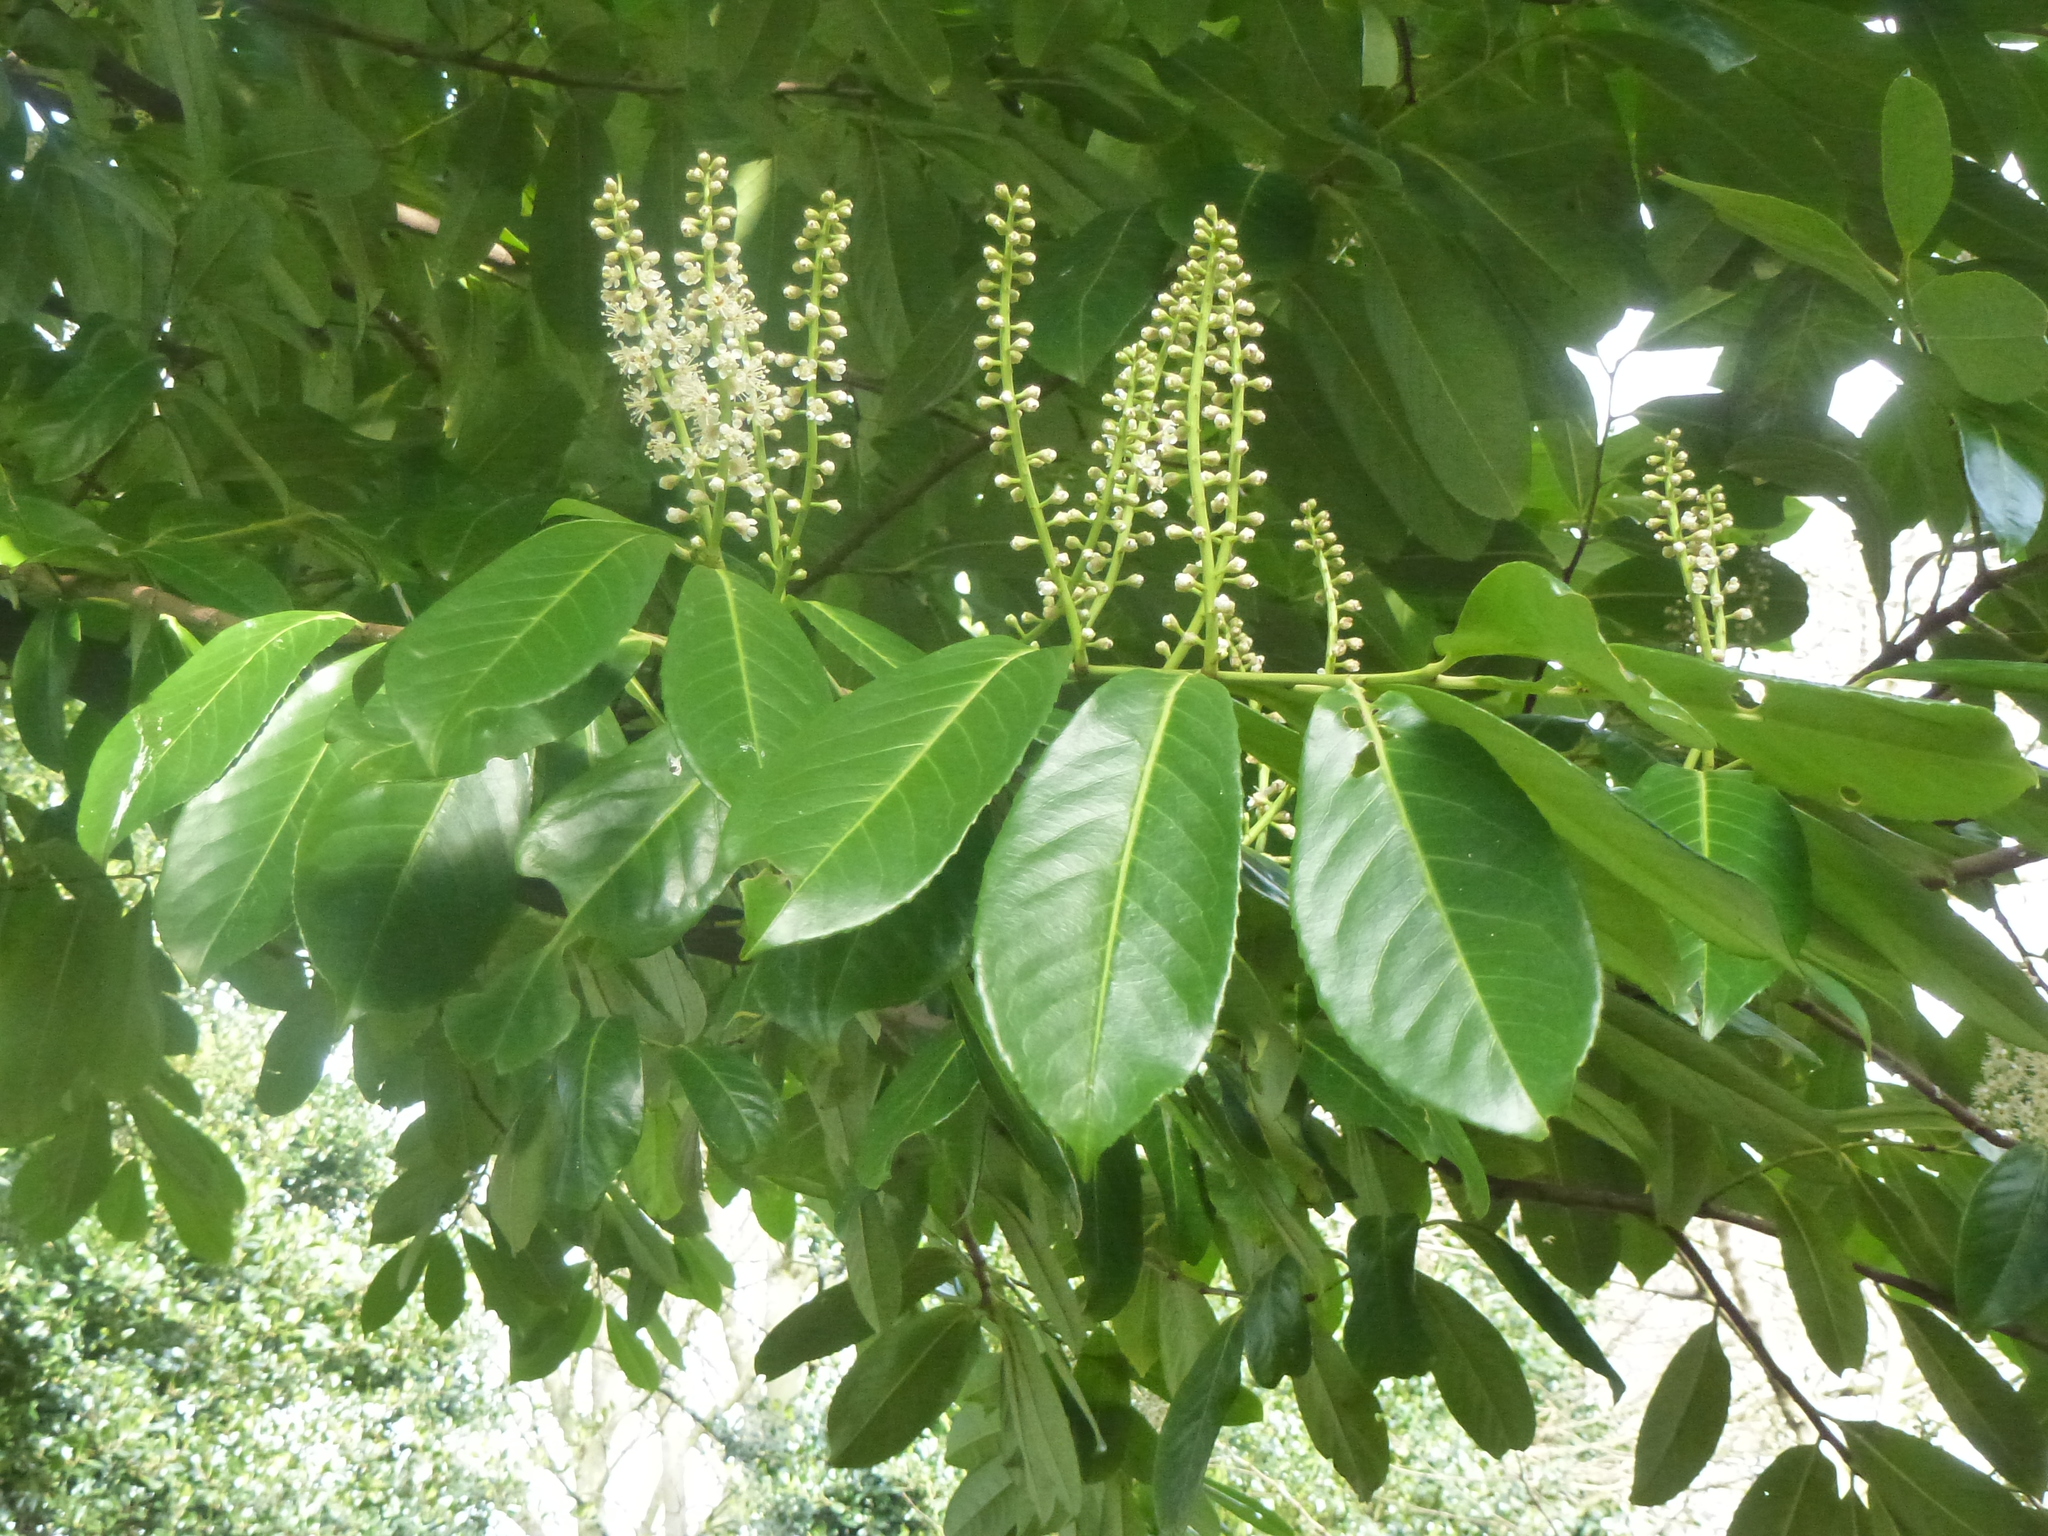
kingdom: Plantae
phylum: Tracheophyta
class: Magnoliopsida
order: Rosales
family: Rosaceae
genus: Prunus
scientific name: Prunus laurocerasus
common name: Cherry laurel
